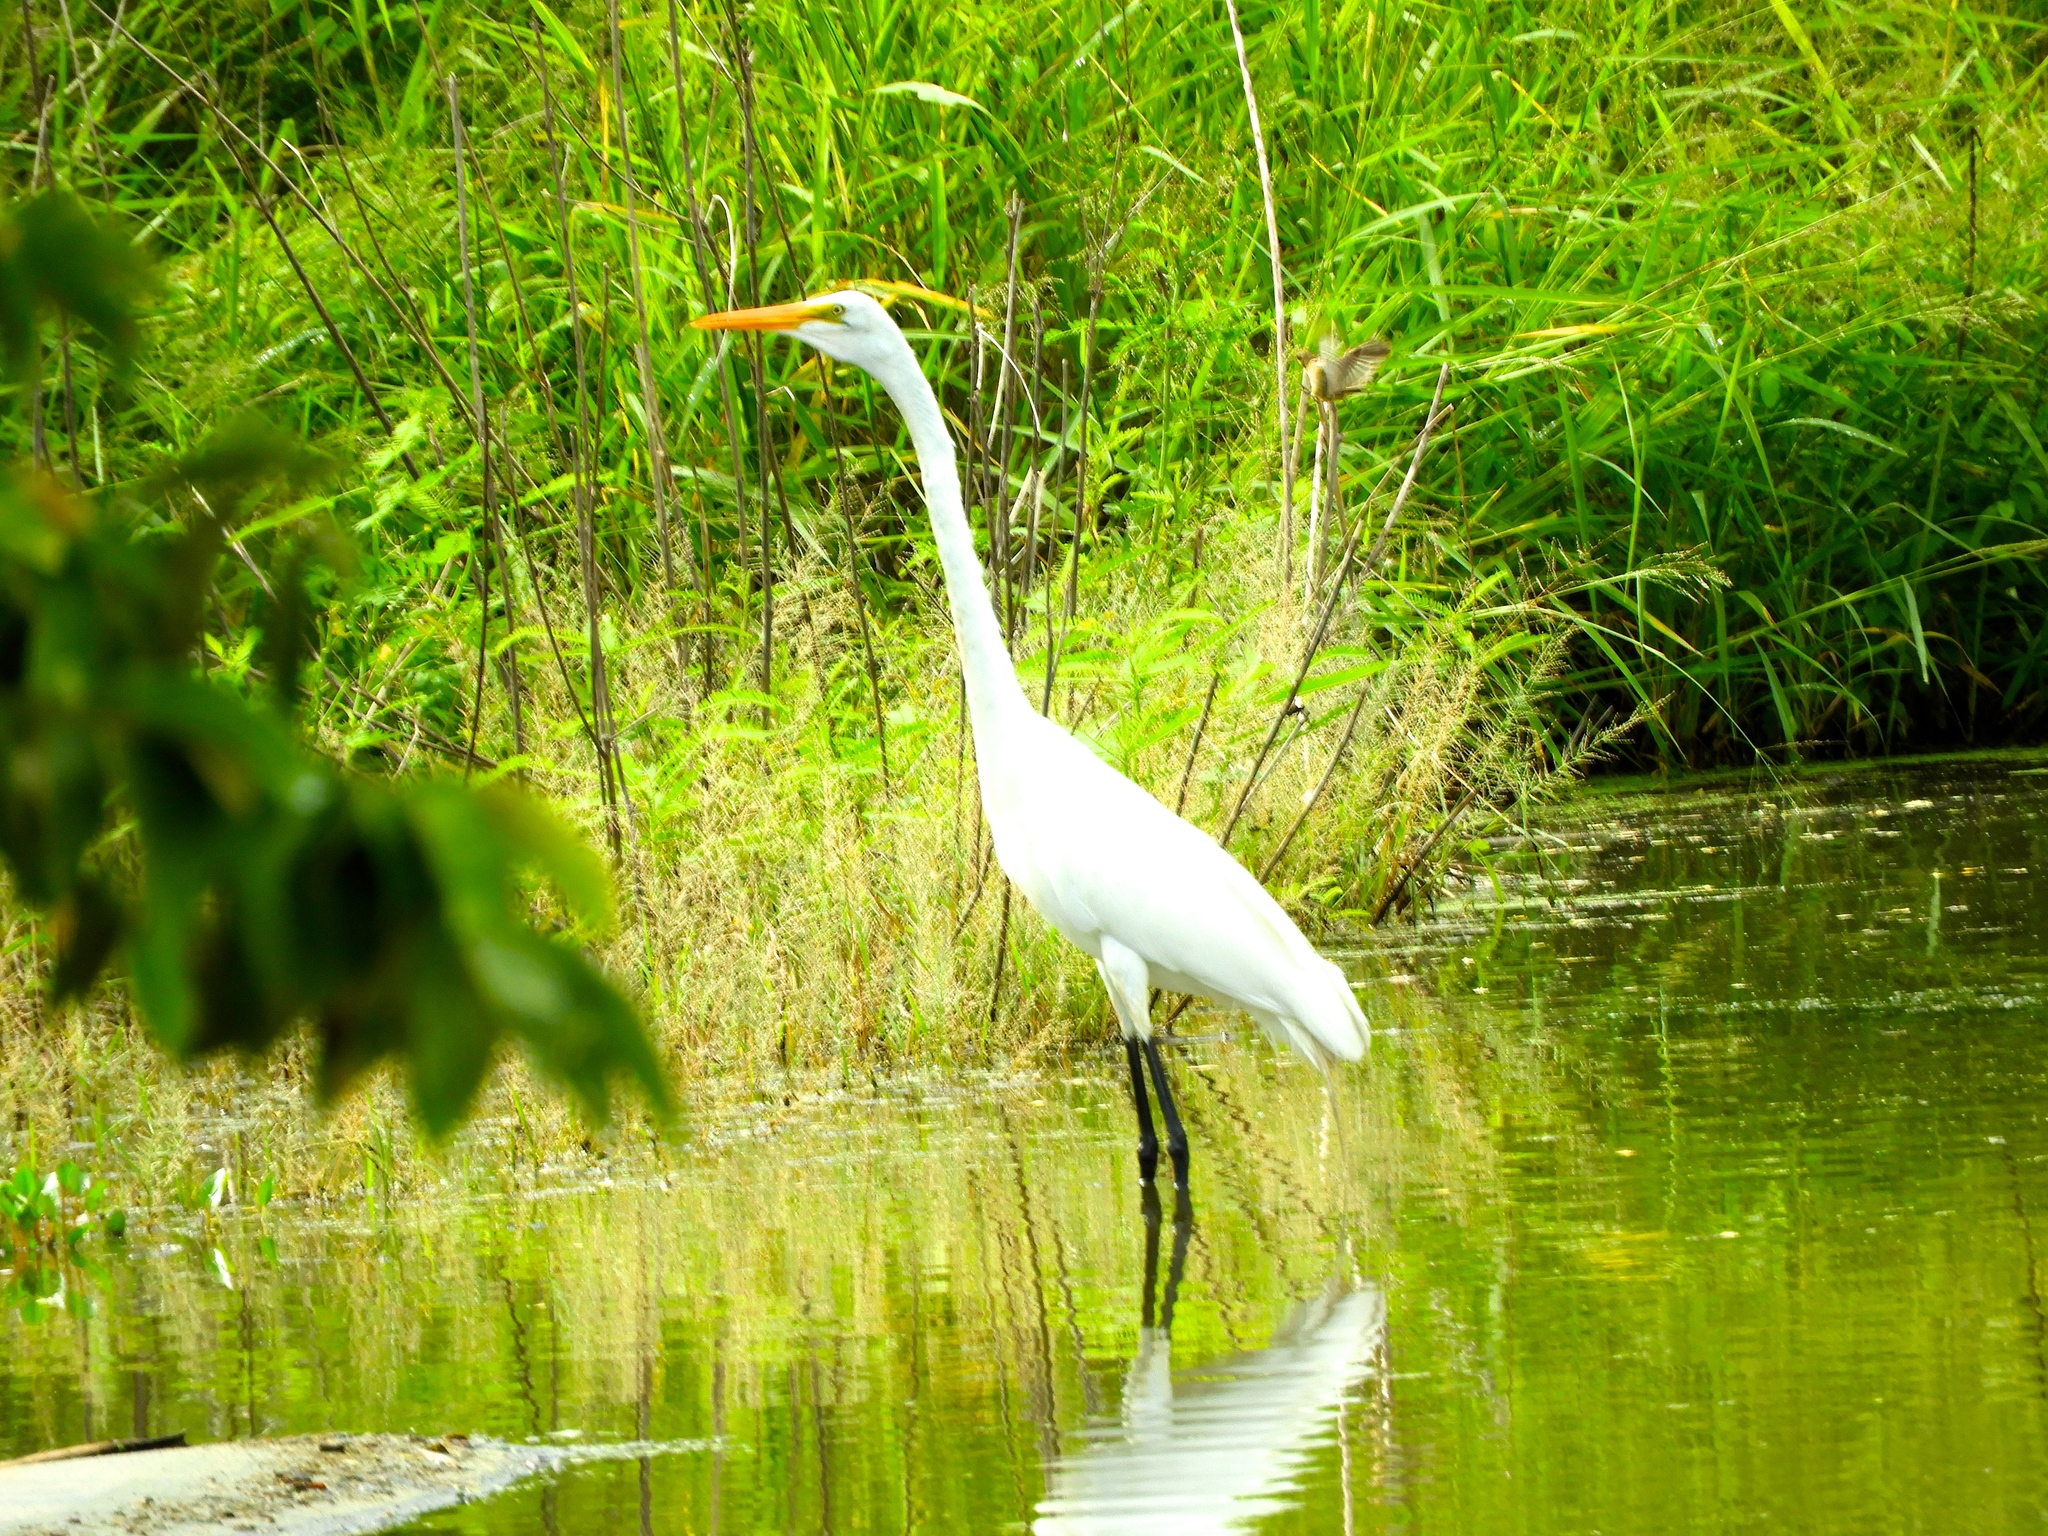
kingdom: Animalia
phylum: Chordata
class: Aves
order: Pelecaniformes
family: Ardeidae
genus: Ardea
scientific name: Ardea alba
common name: Great egret
